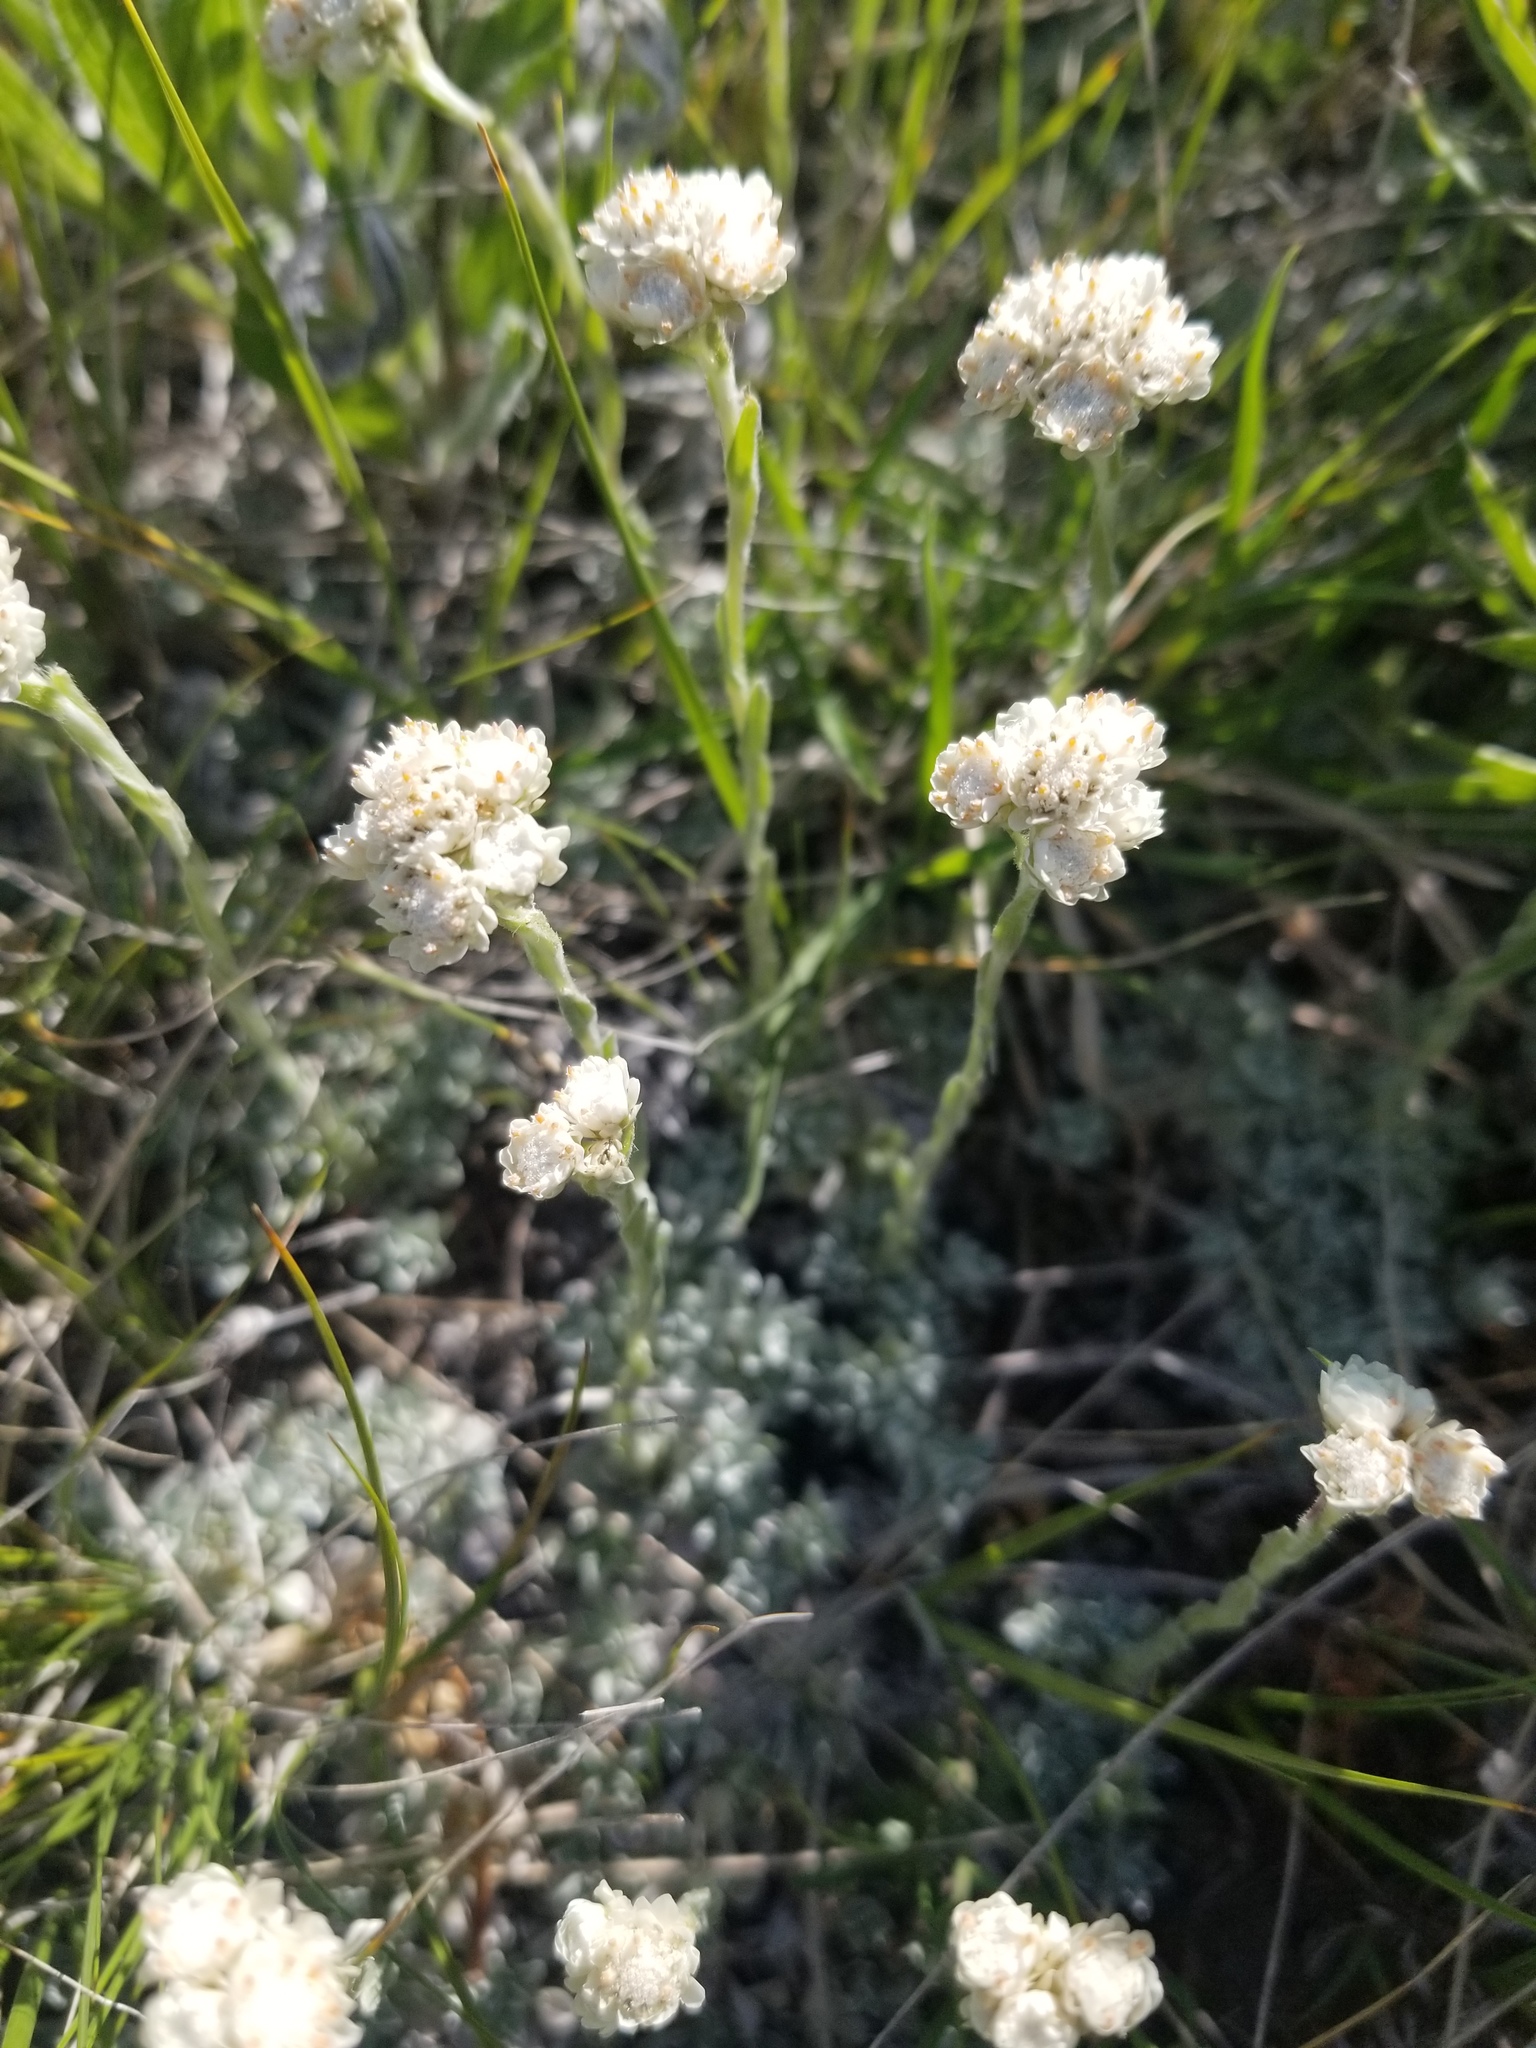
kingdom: Plantae
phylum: Tracheophyta
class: Magnoliopsida
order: Asterales
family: Asteraceae
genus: Antennaria
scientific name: Antennaria microphylla
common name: Littleleaf pussytoes
